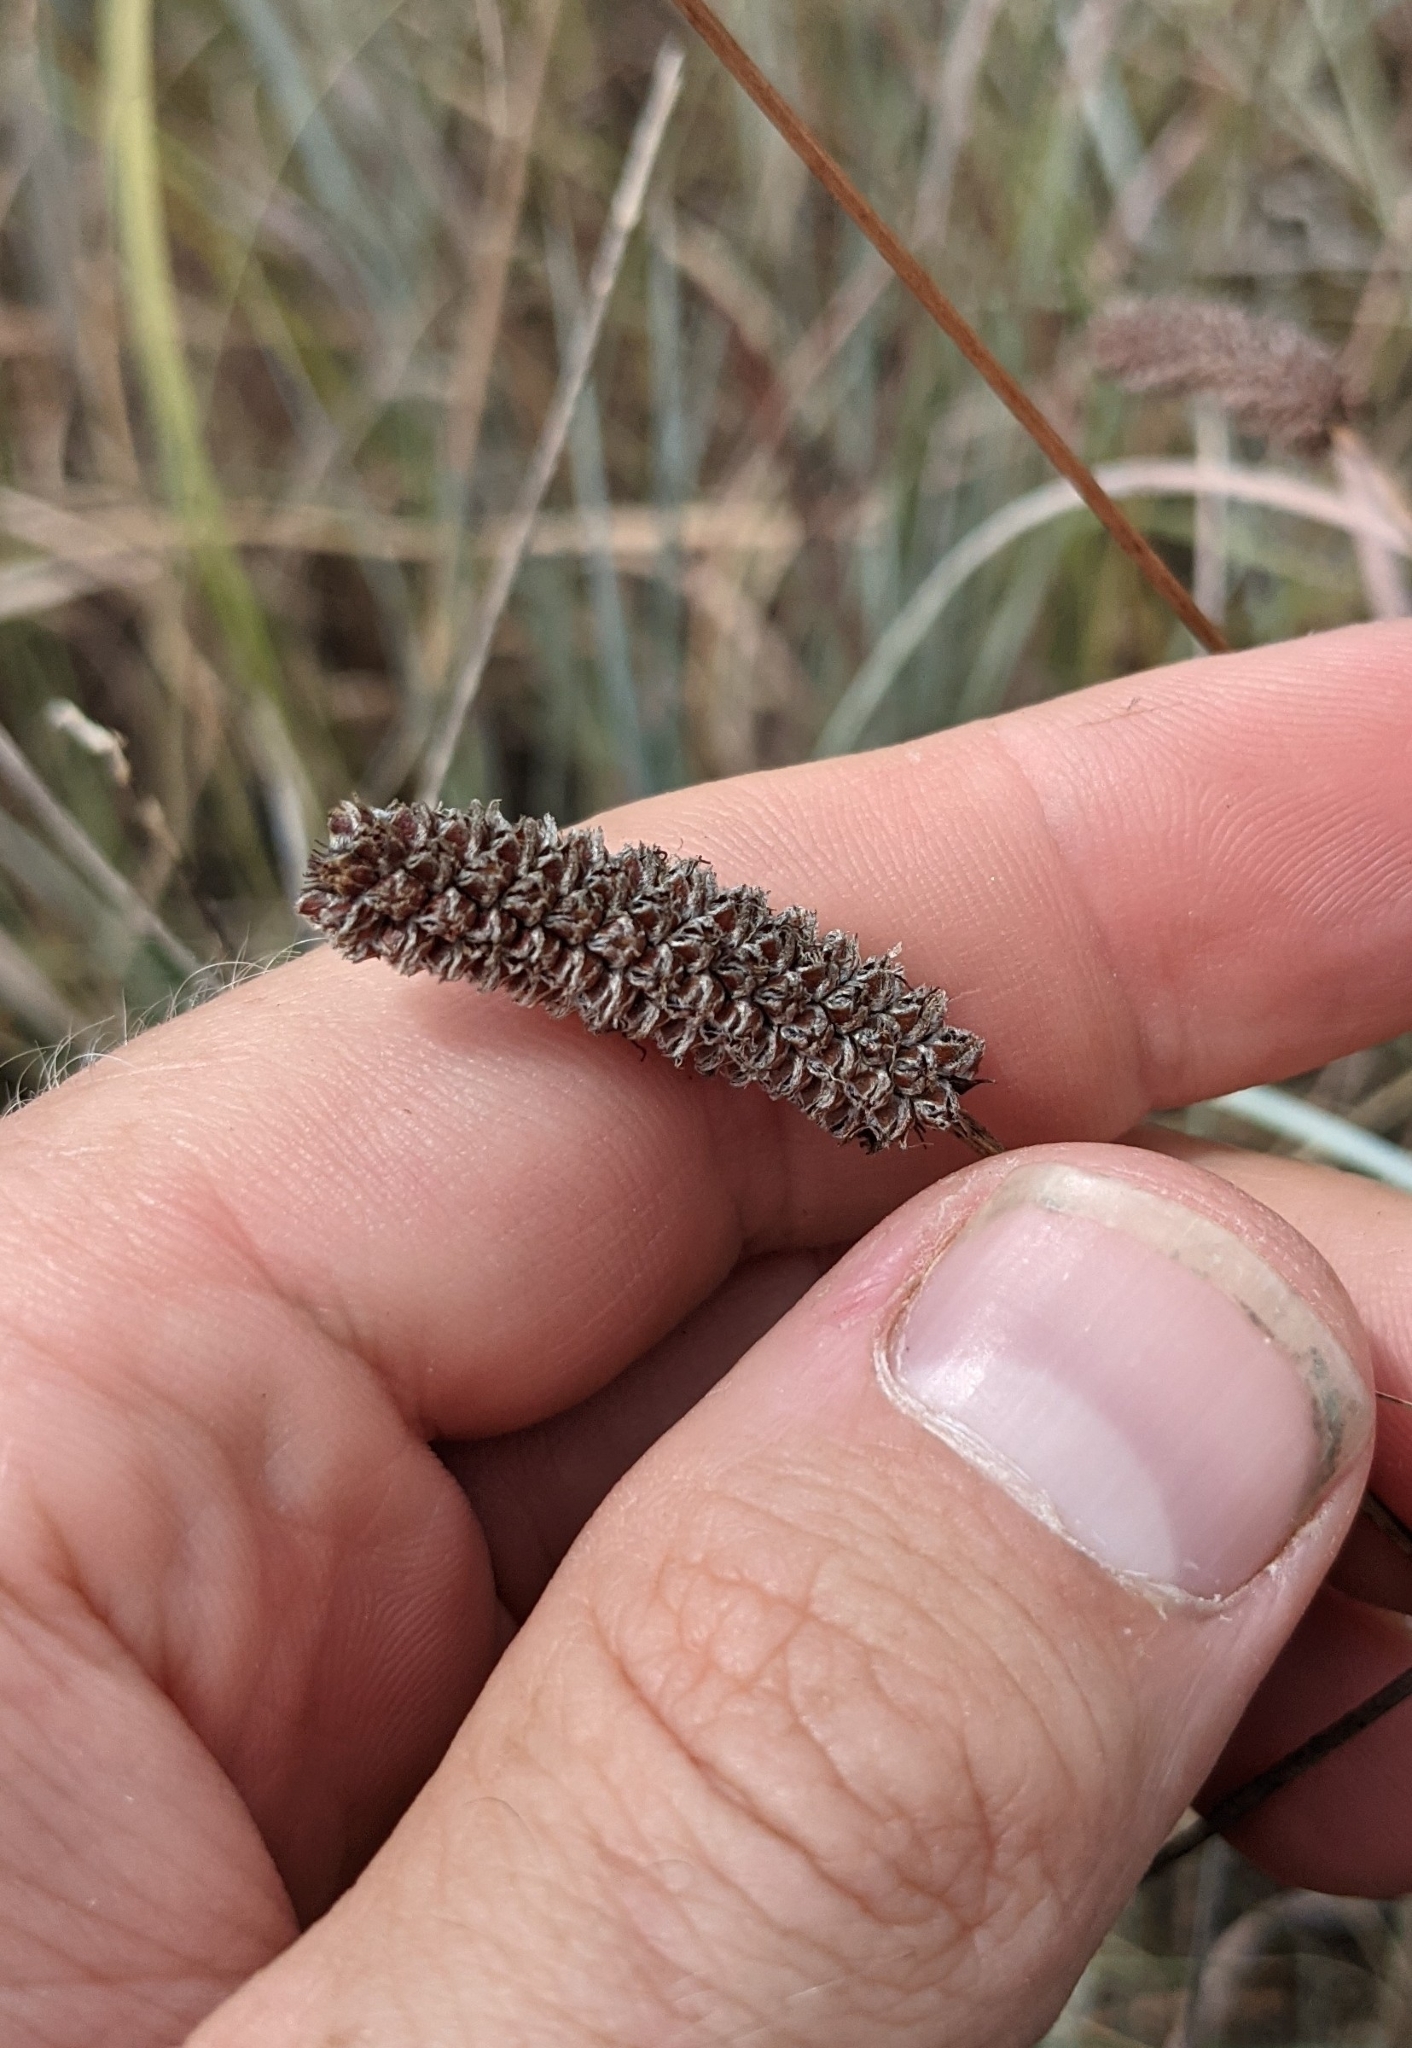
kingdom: Plantae
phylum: Tracheophyta
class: Magnoliopsida
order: Fabales
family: Fabaceae
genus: Dalea
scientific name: Dalea tenuis
